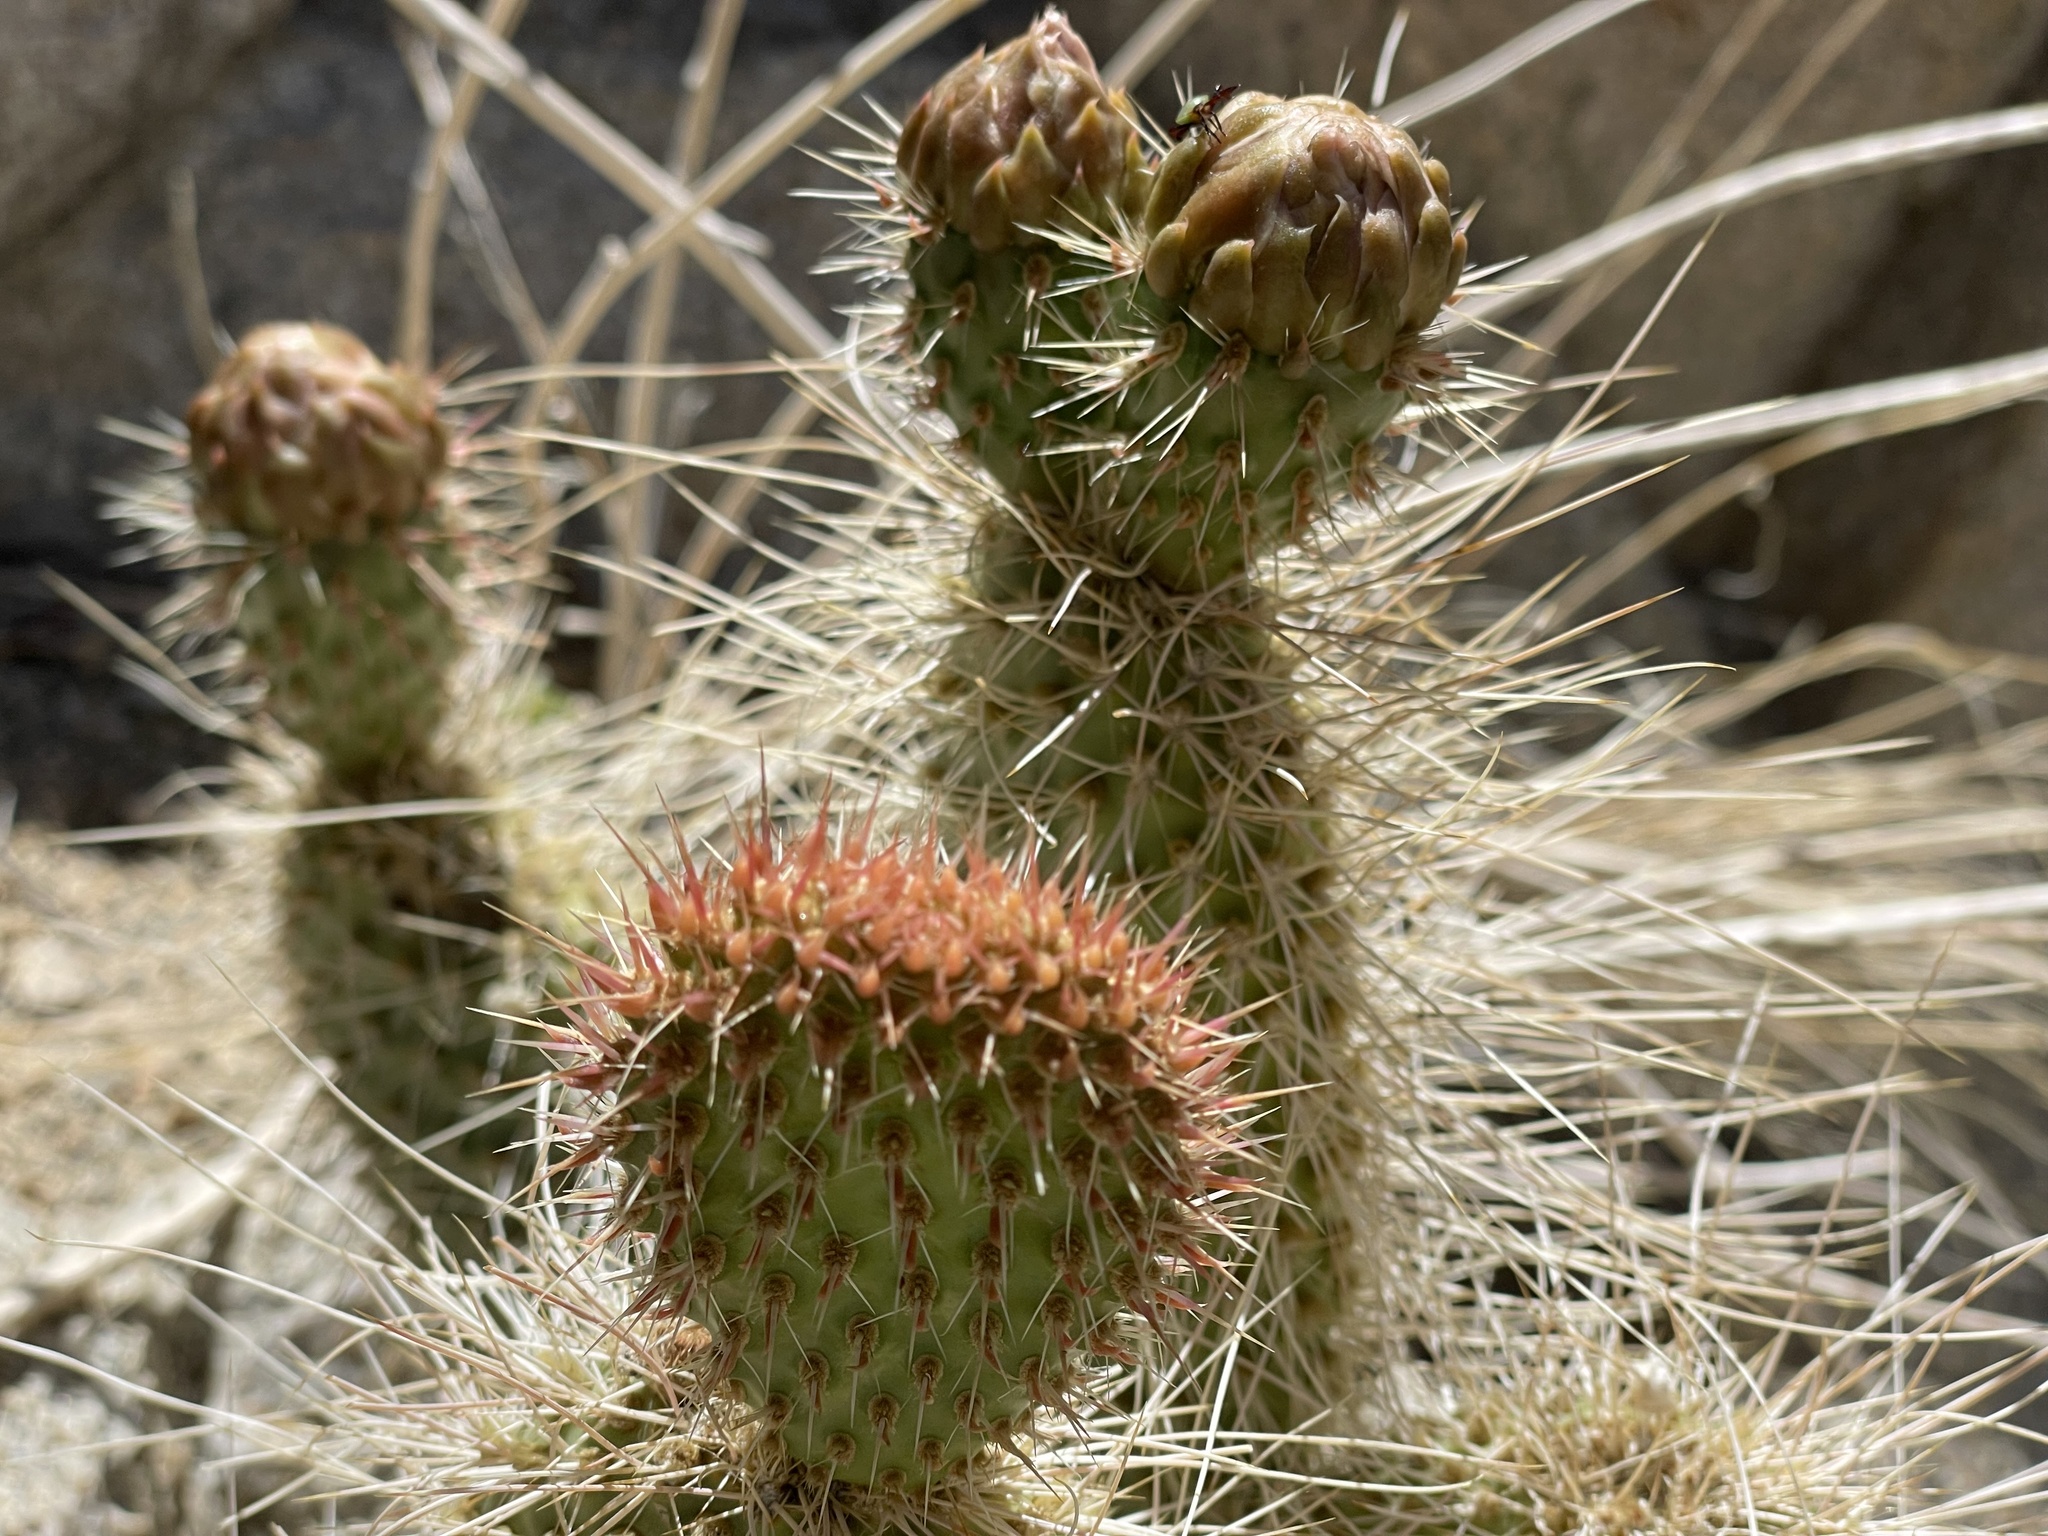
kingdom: Plantae
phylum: Tracheophyta
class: Magnoliopsida
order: Caryophyllales
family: Cactaceae
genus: Opuntia
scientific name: Opuntia polyacantha
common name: Plains prickly-pear
